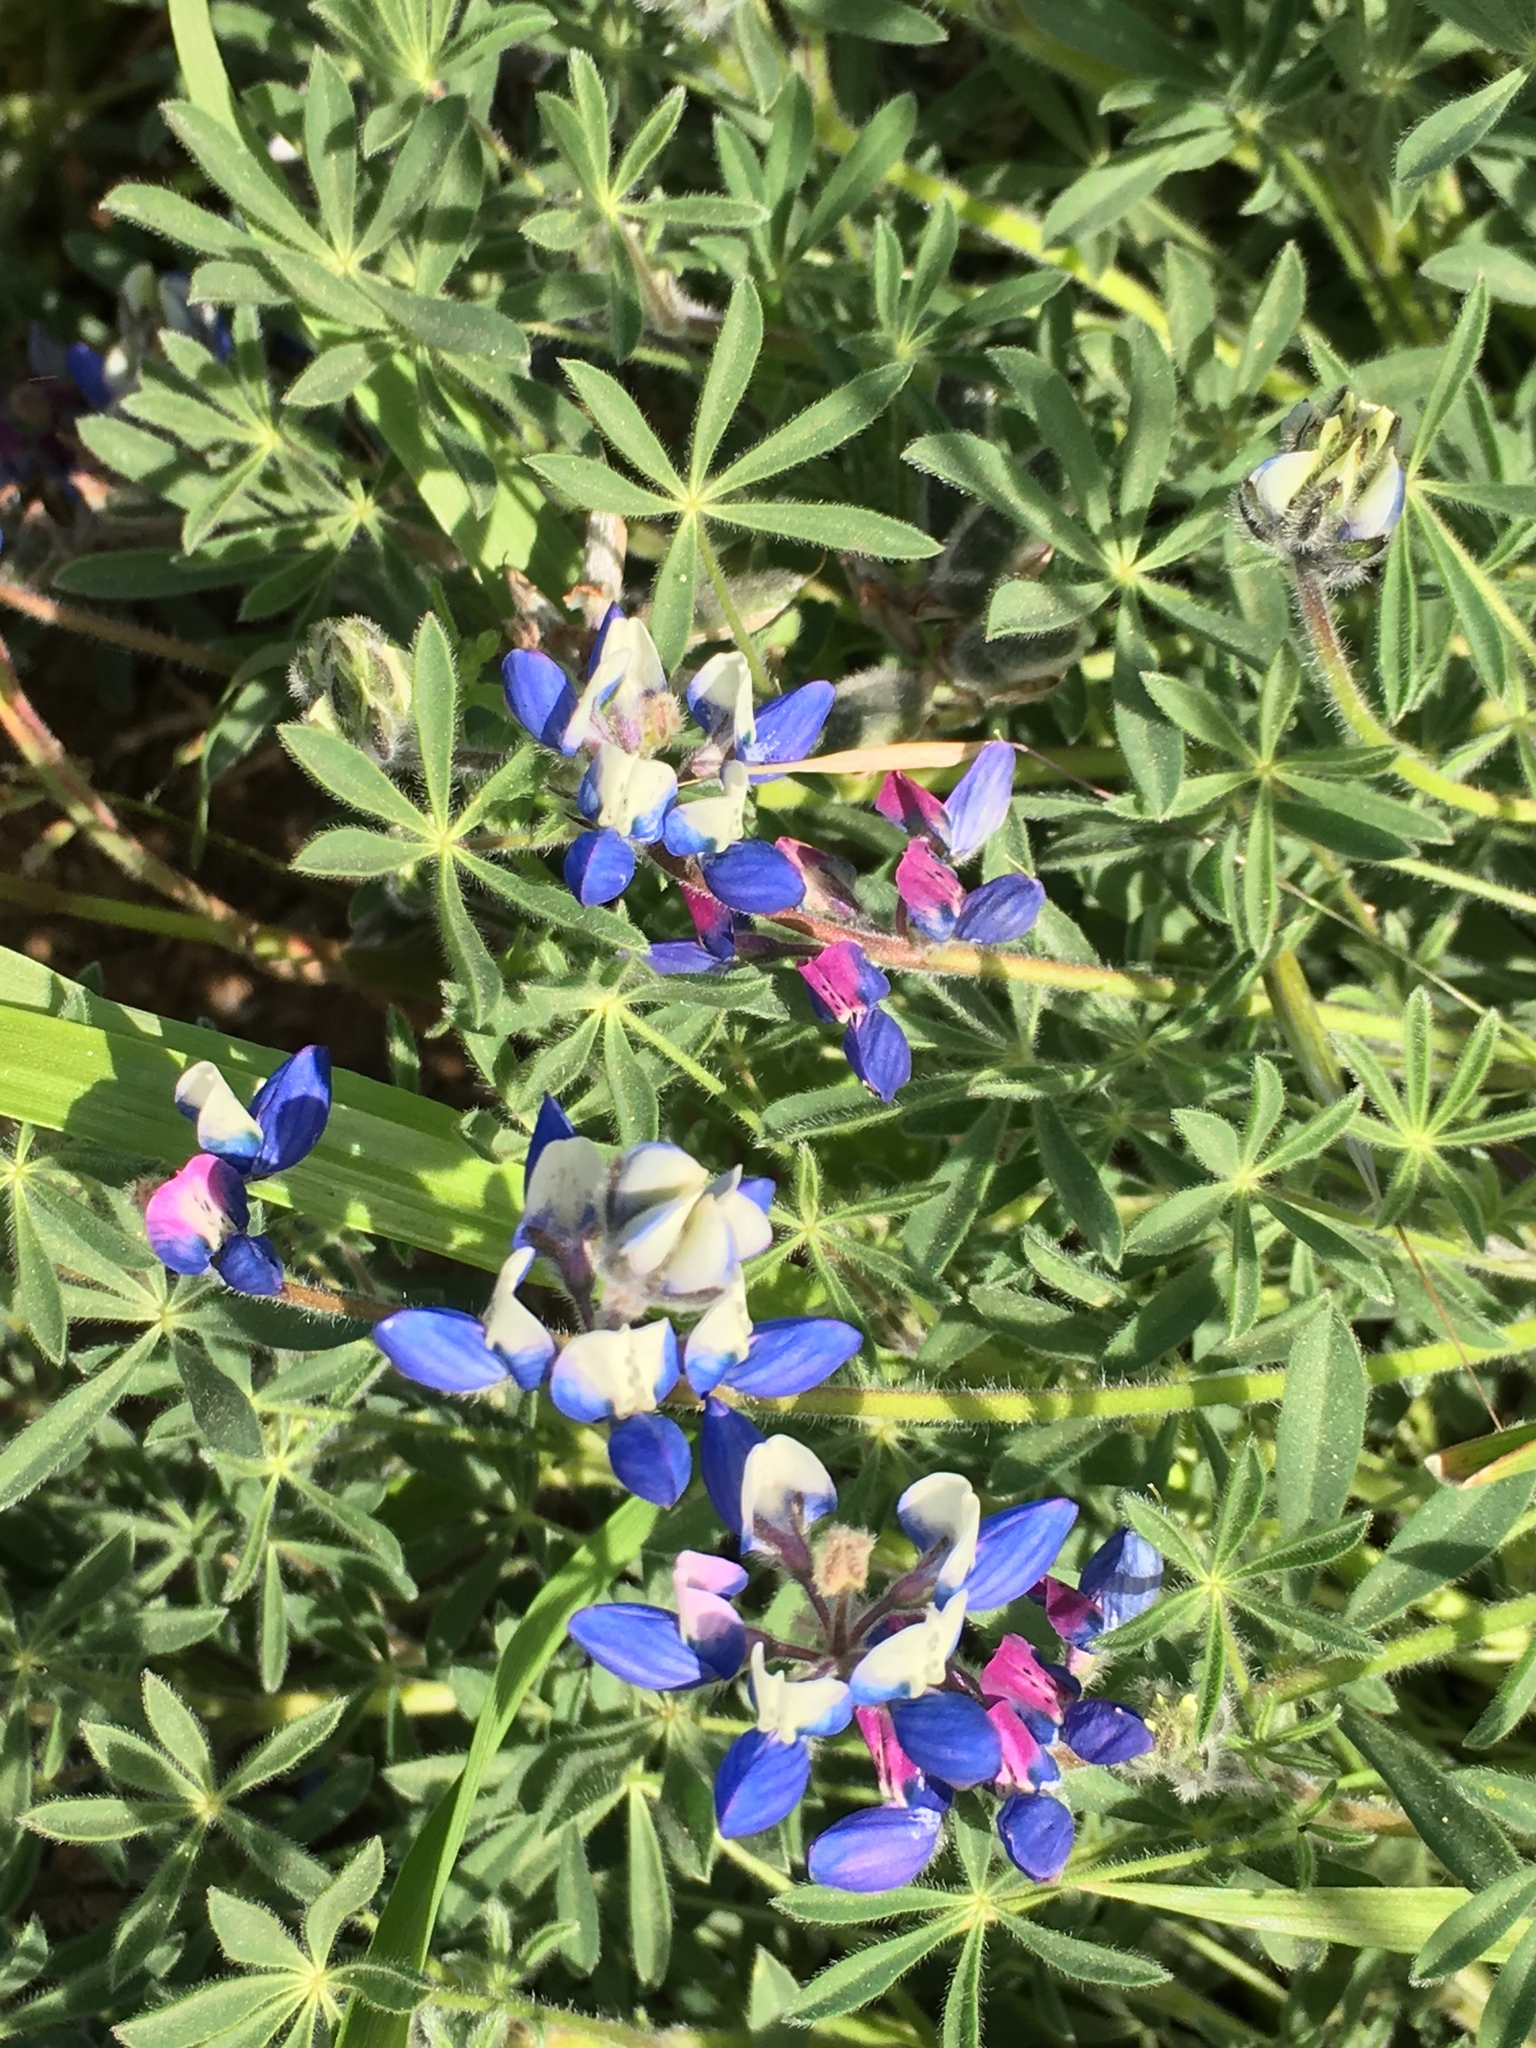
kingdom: Plantae
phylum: Tracheophyta
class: Magnoliopsida
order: Fabales
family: Fabaceae
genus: Lupinus
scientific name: Lupinus bicolor
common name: Miniature lupine
